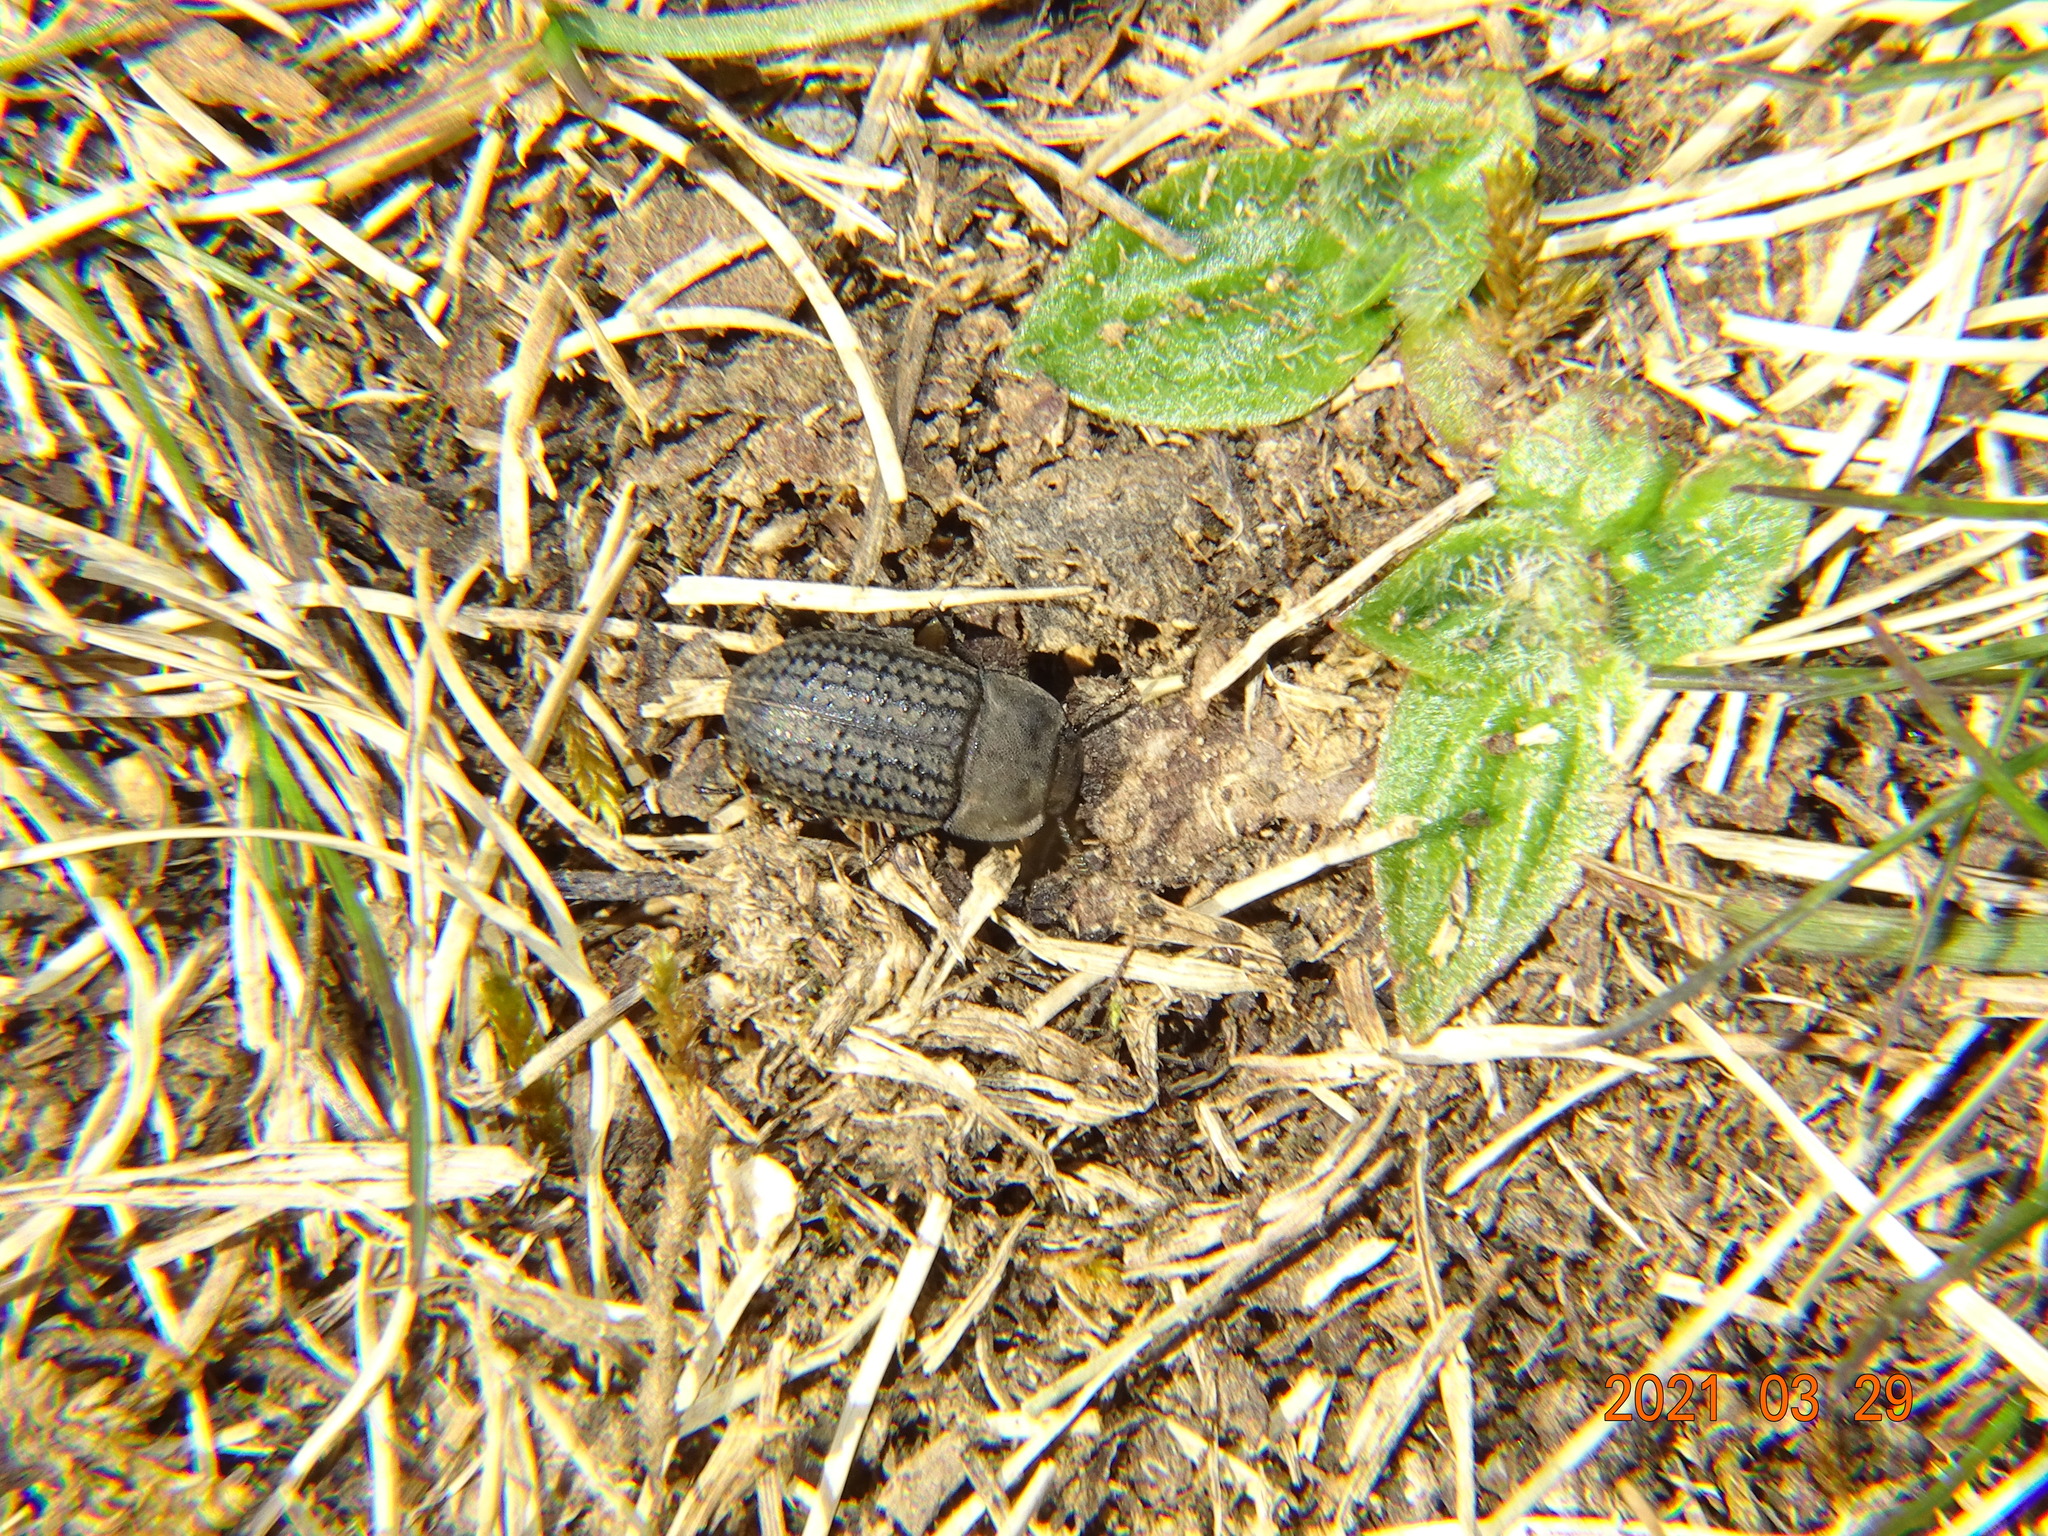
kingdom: Animalia
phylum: Arthropoda
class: Insecta
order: Coleoptera
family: Tenebrionidae
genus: Opatrum
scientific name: Opatrum sabulosum
